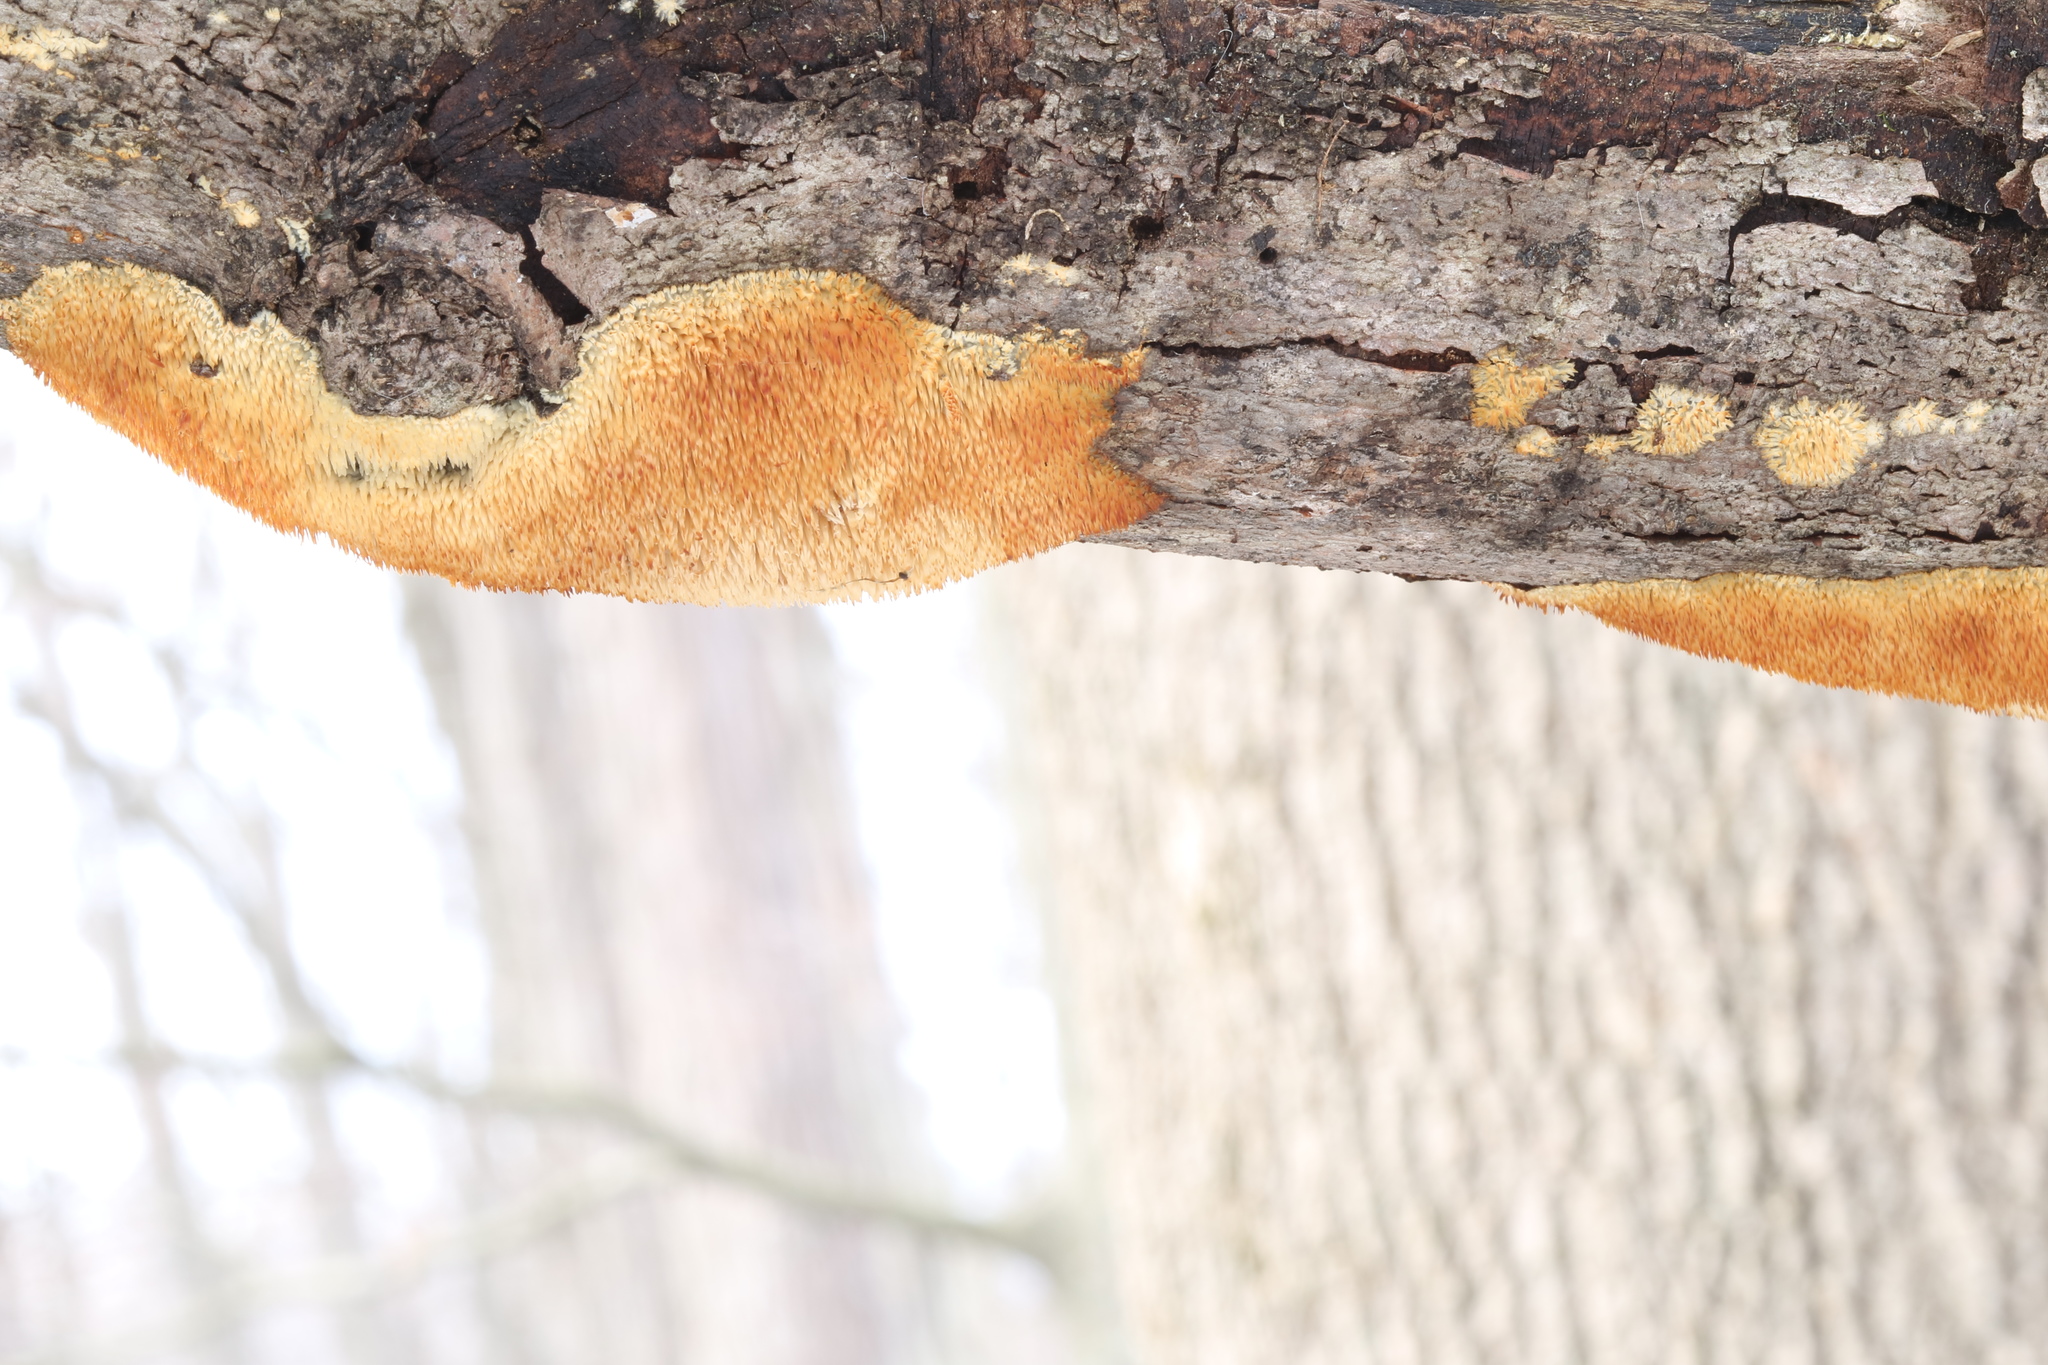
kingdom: Fungi
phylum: Basidiomycota
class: Agaricomycetes
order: Agaricales
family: Radulomycetaceae
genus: Radulomyces
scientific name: Radulomyces copelandii
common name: Asian beauty
